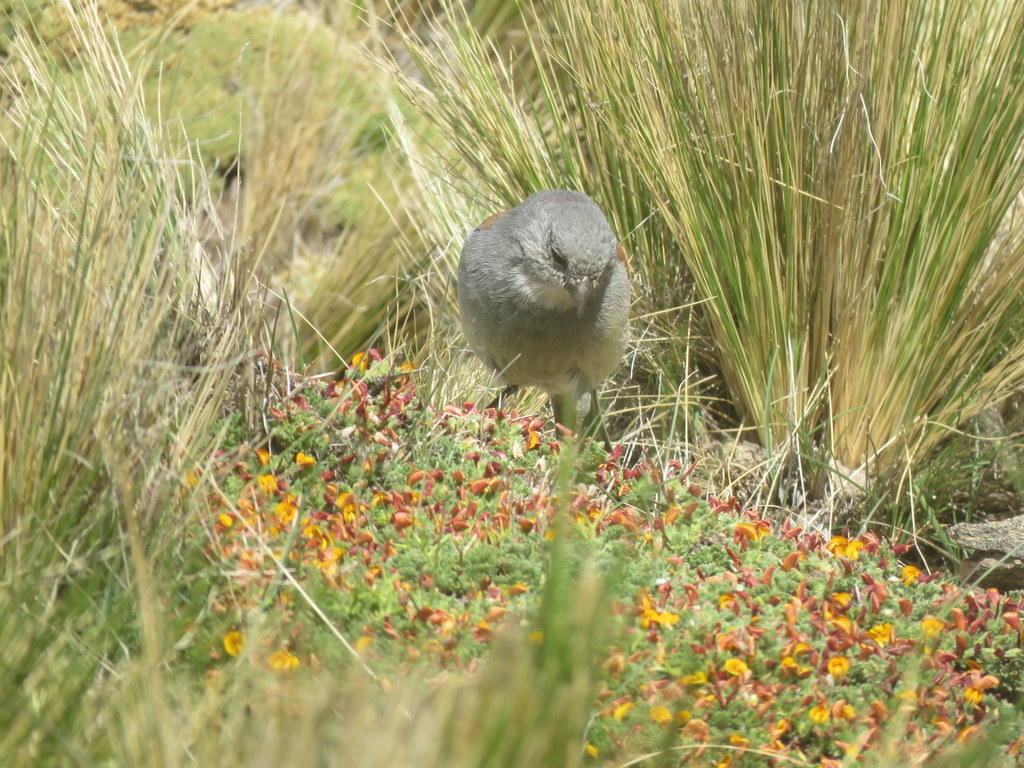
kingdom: Animalia
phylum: Chordata
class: Aves
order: Passeriformes
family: Thraupidae
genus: Idiopsar
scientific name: Idiopsar dorsalis
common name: Red-backed sierra finch
